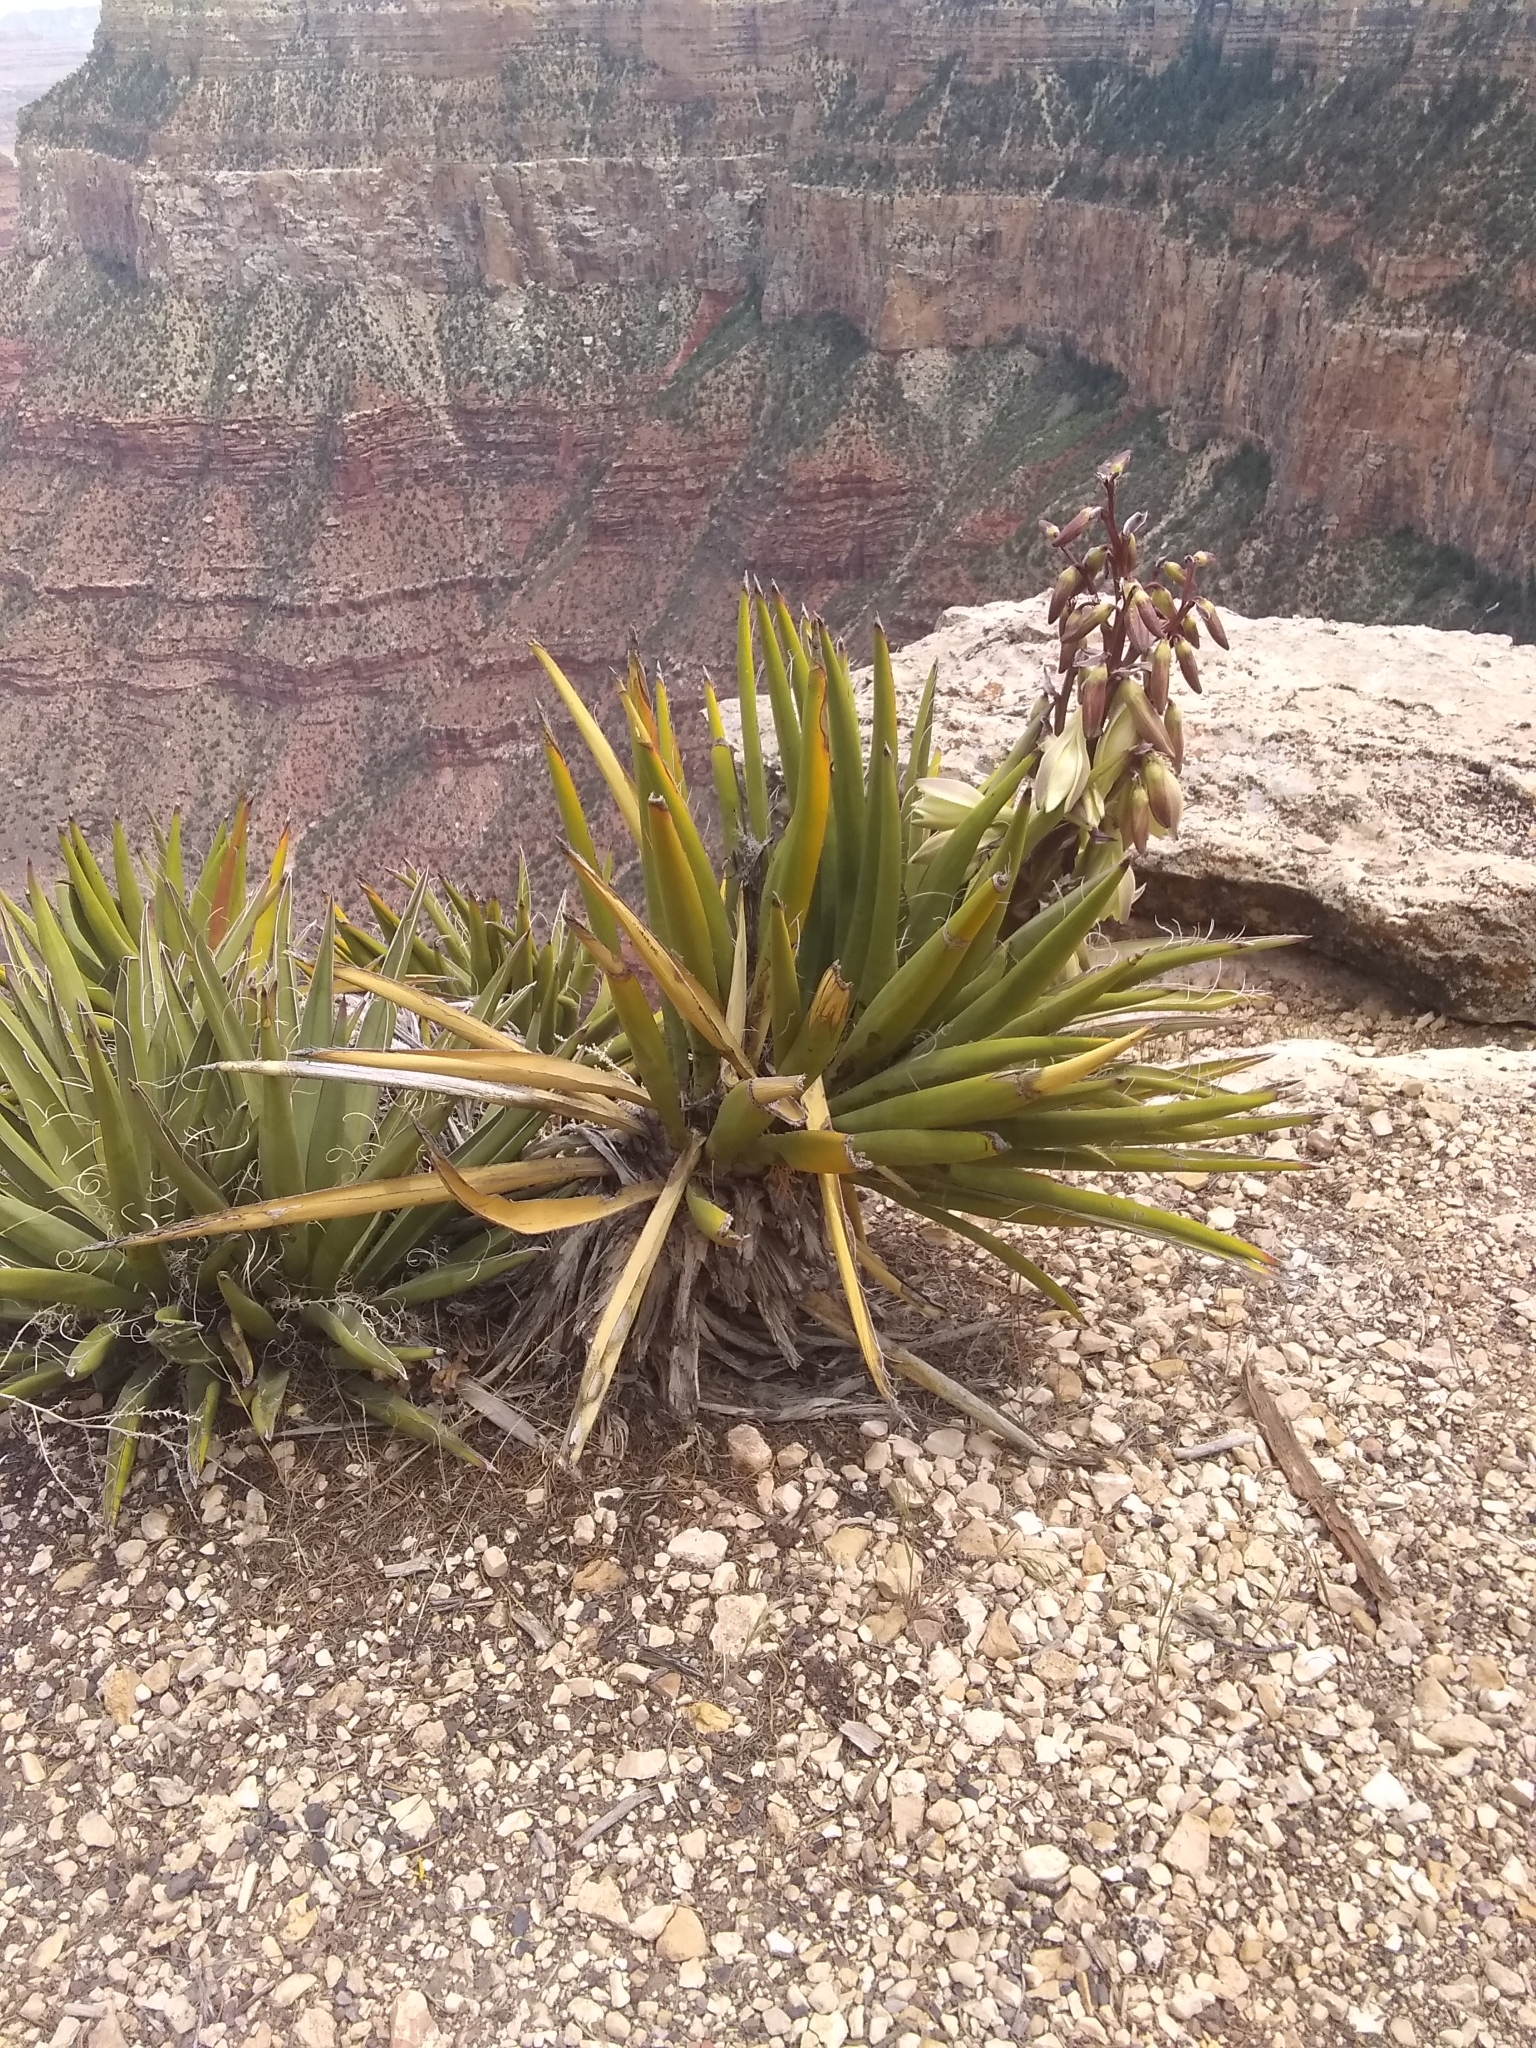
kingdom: Plantae
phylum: Tracheophyta
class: Liliopsida
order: Asparagales
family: Asparagaceae
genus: Yucca
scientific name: Yucca baccata
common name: Banana yucca
